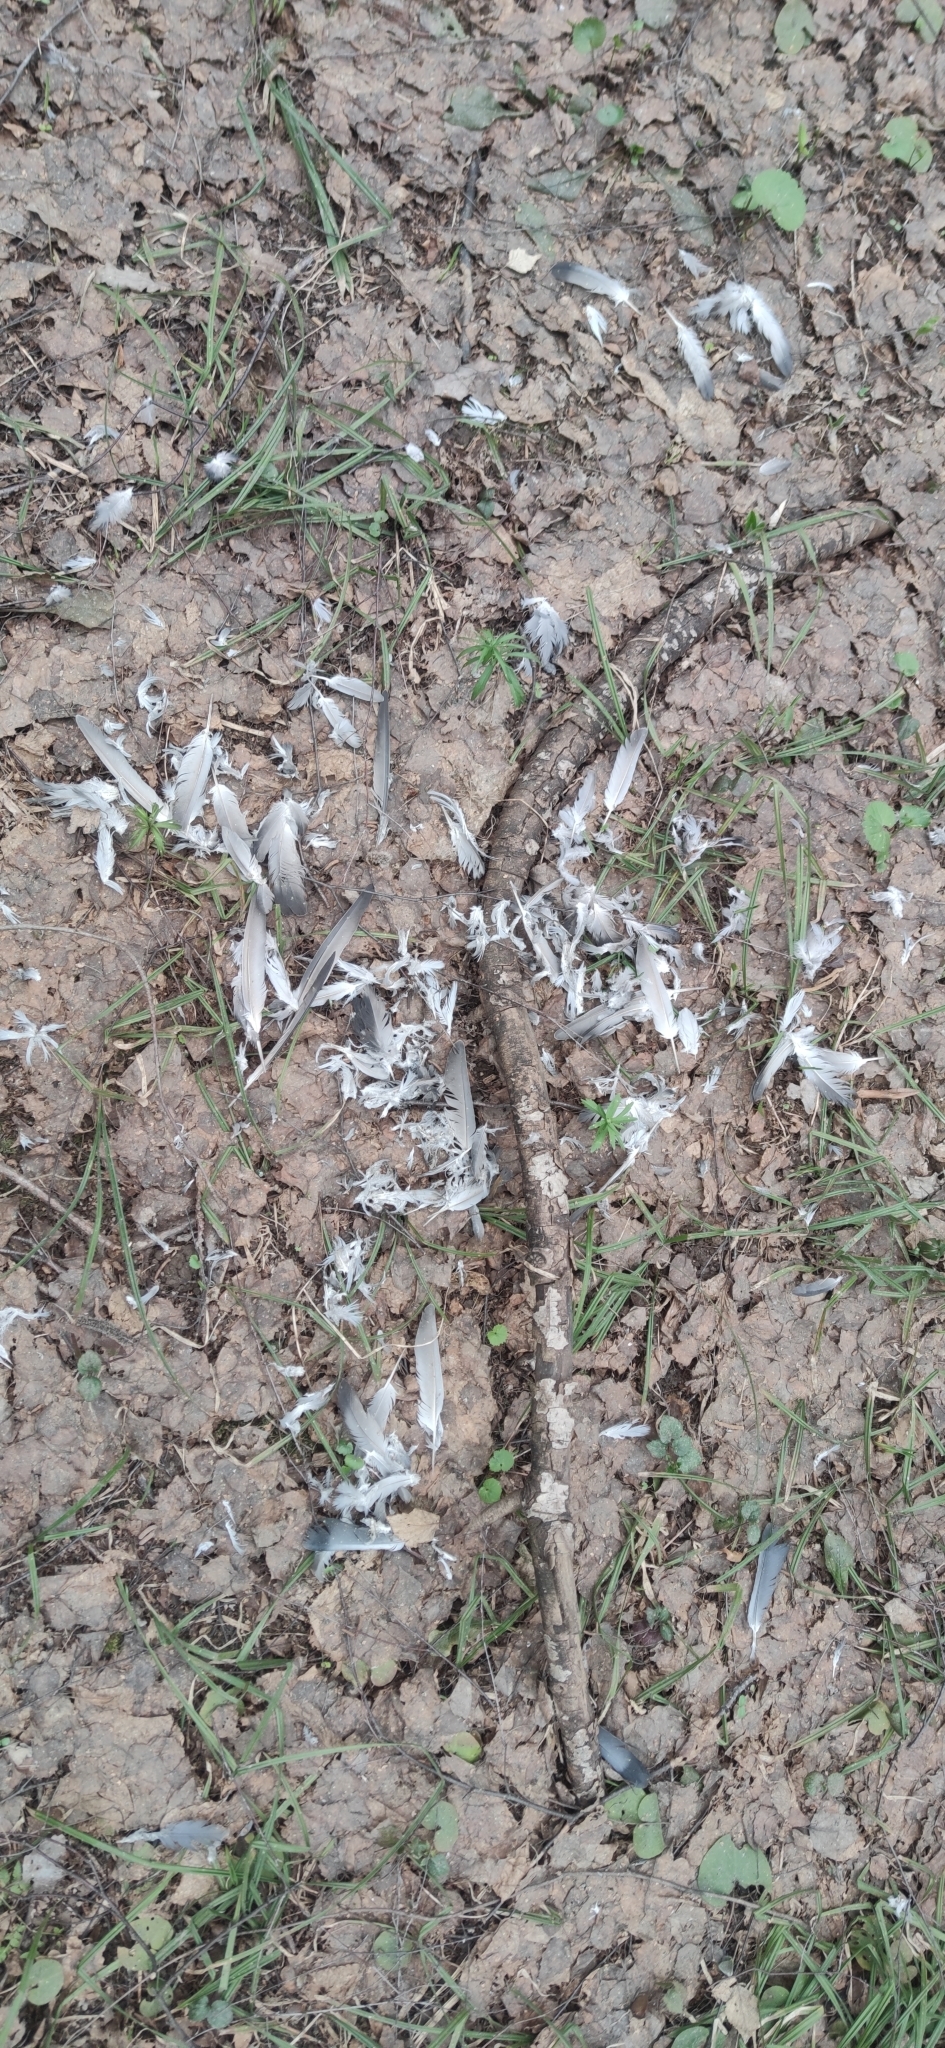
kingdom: Animalia
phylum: Chordata
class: Aves
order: Columbiformes
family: Columbidae
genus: Columba
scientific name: Columba livia
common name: Rock pigeon
